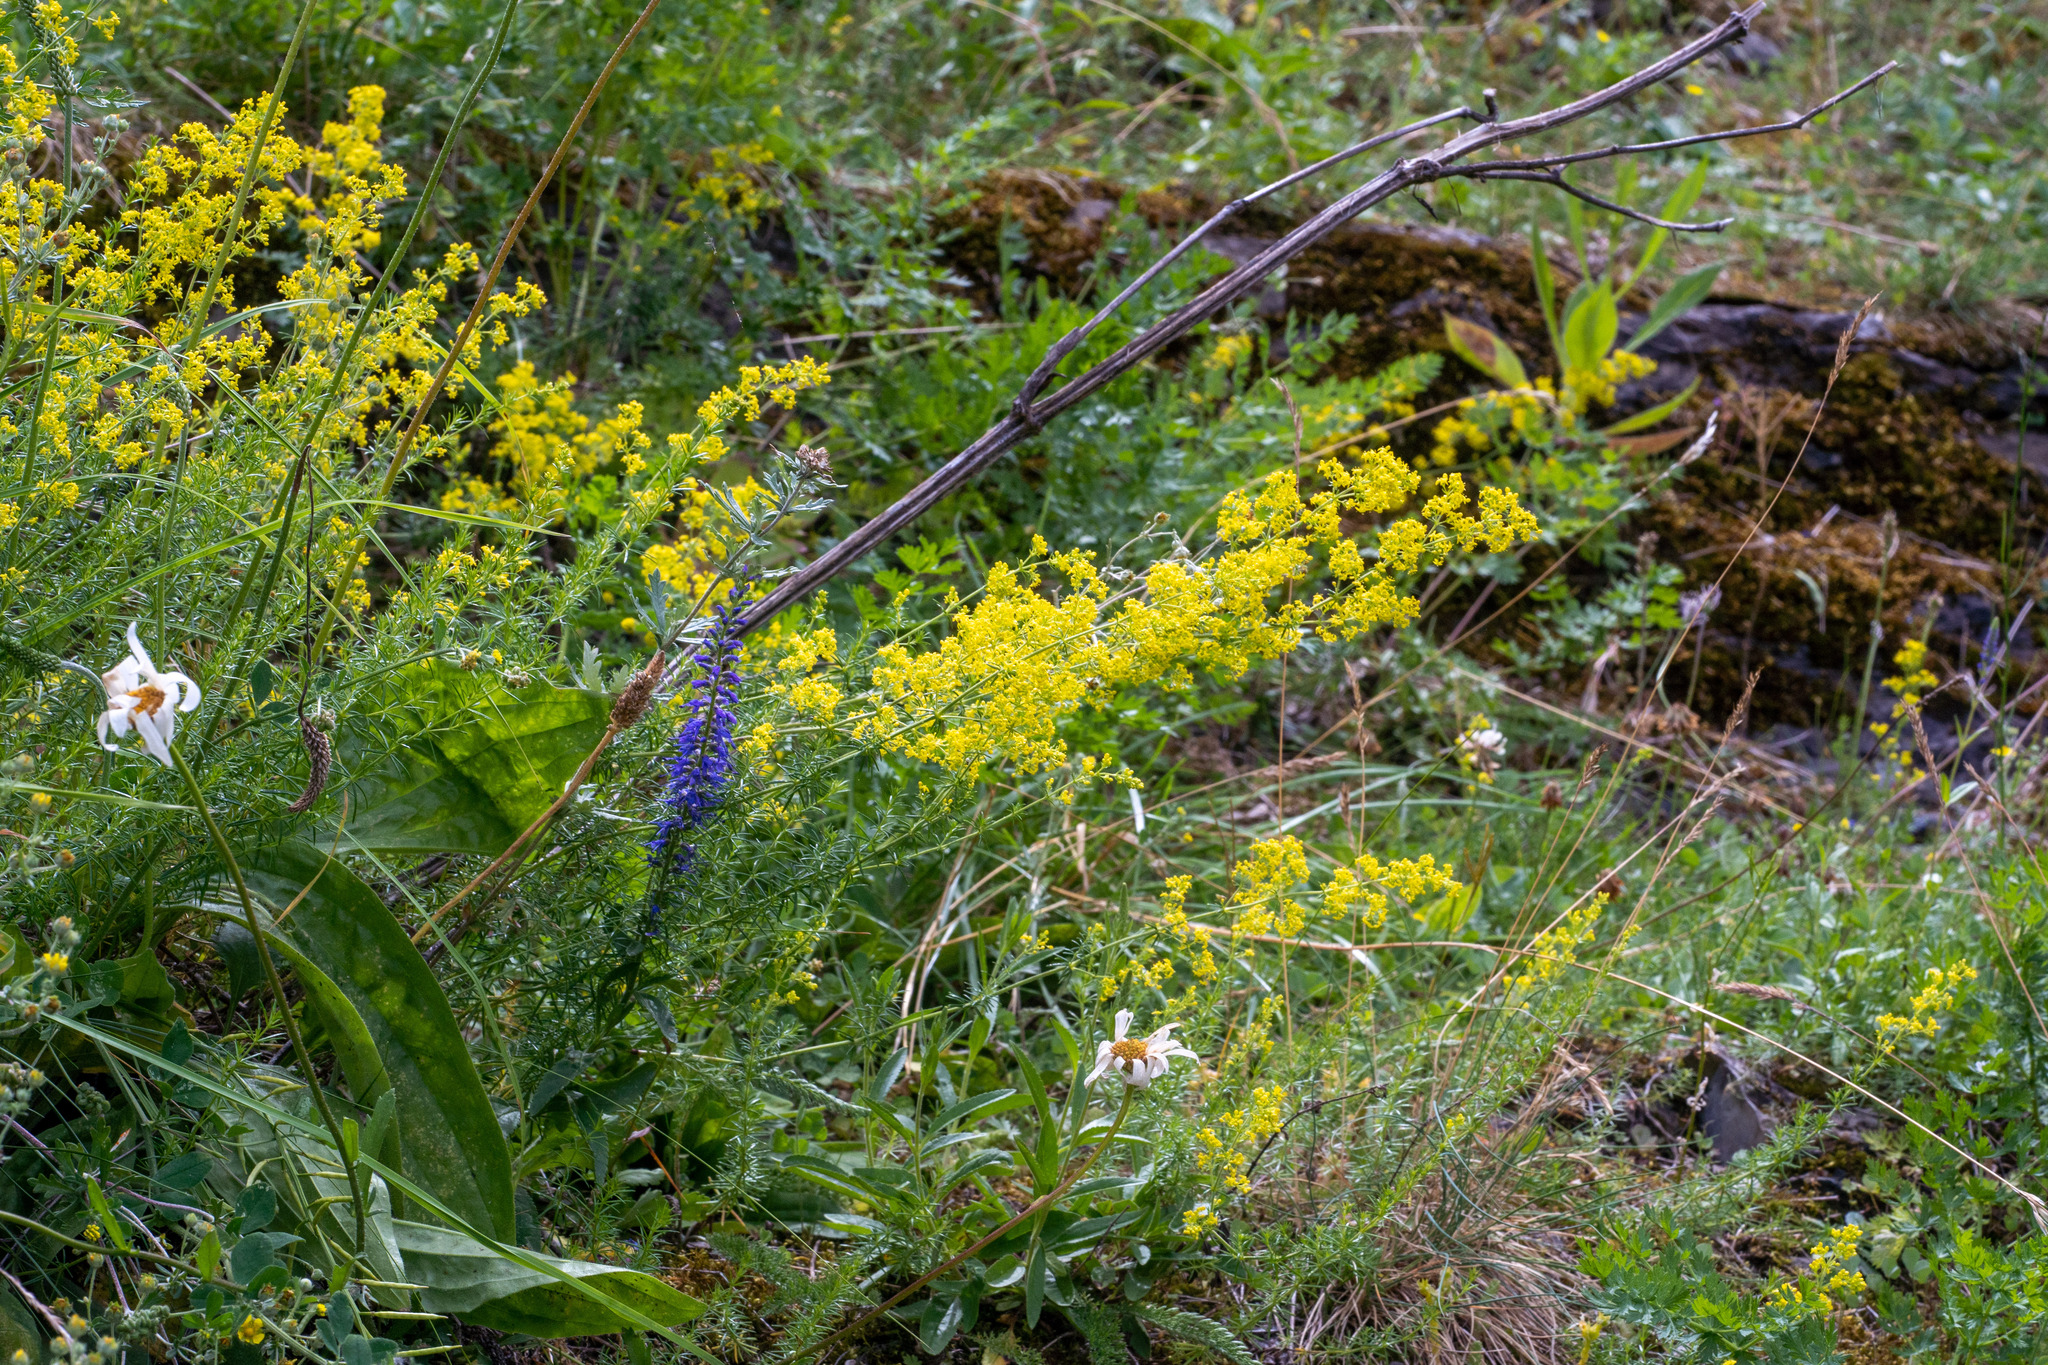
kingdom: Plantae
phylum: Tracheophyta
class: Magnoliopsida
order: Gentianales
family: Rubiaceae
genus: Galium
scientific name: Galium verum
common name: Lady's bedstraw
